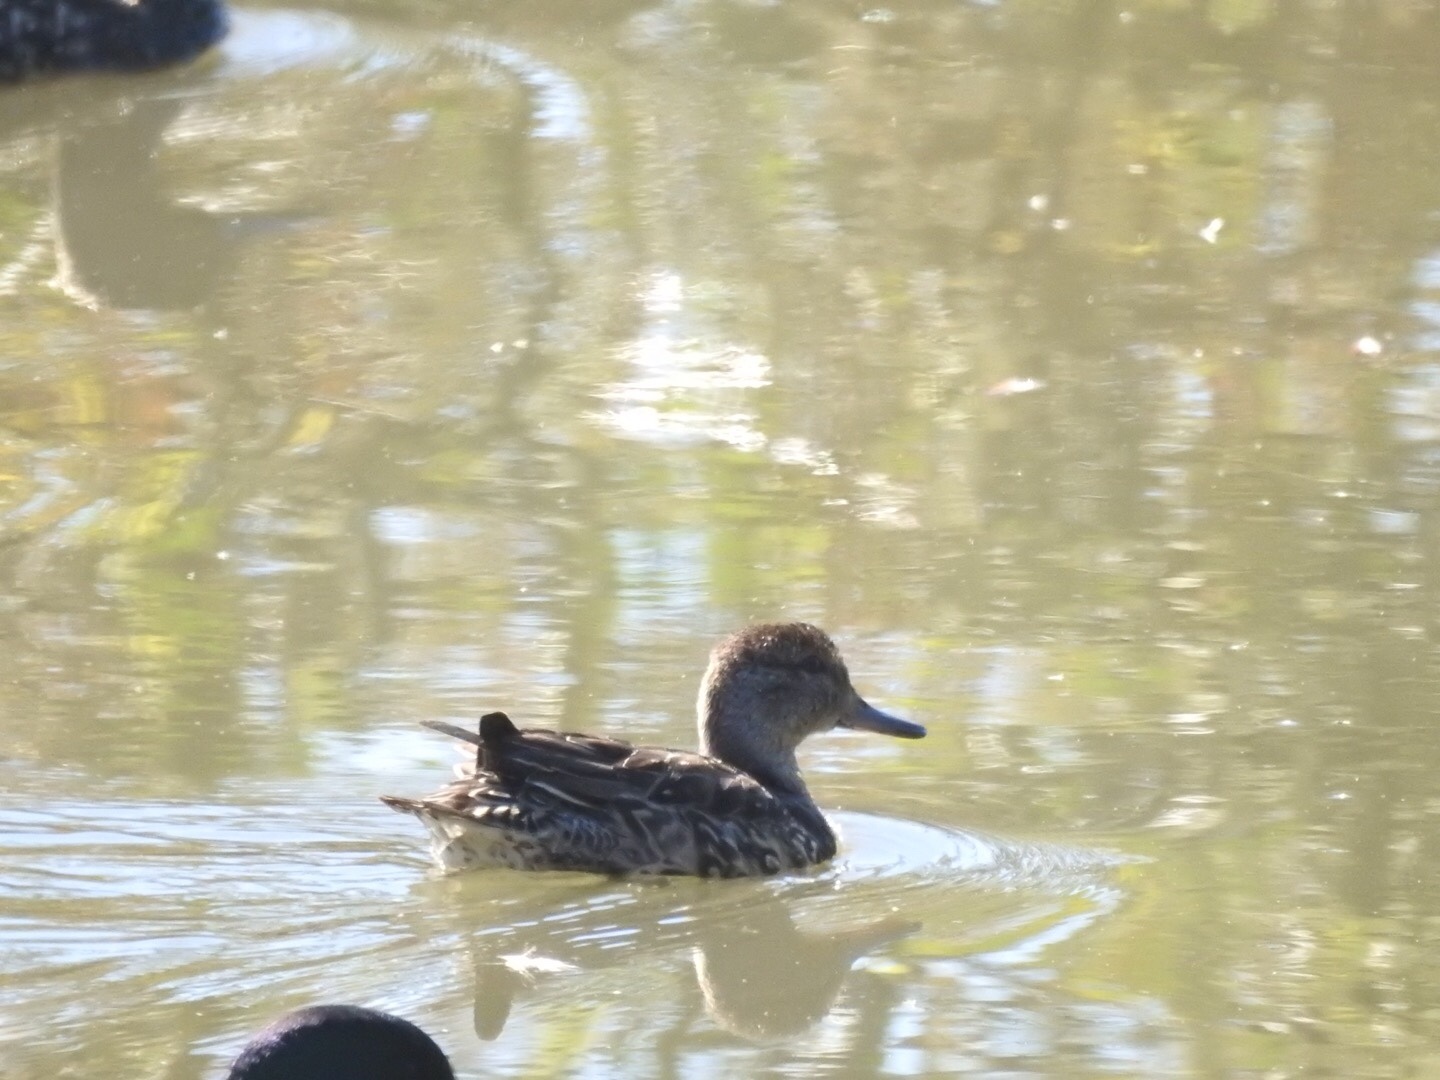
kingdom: Animalia
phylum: Chordata
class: Aves
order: Anseriformes
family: Anatidae
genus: Anas
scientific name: Anas crecca
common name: Eurasian teal
